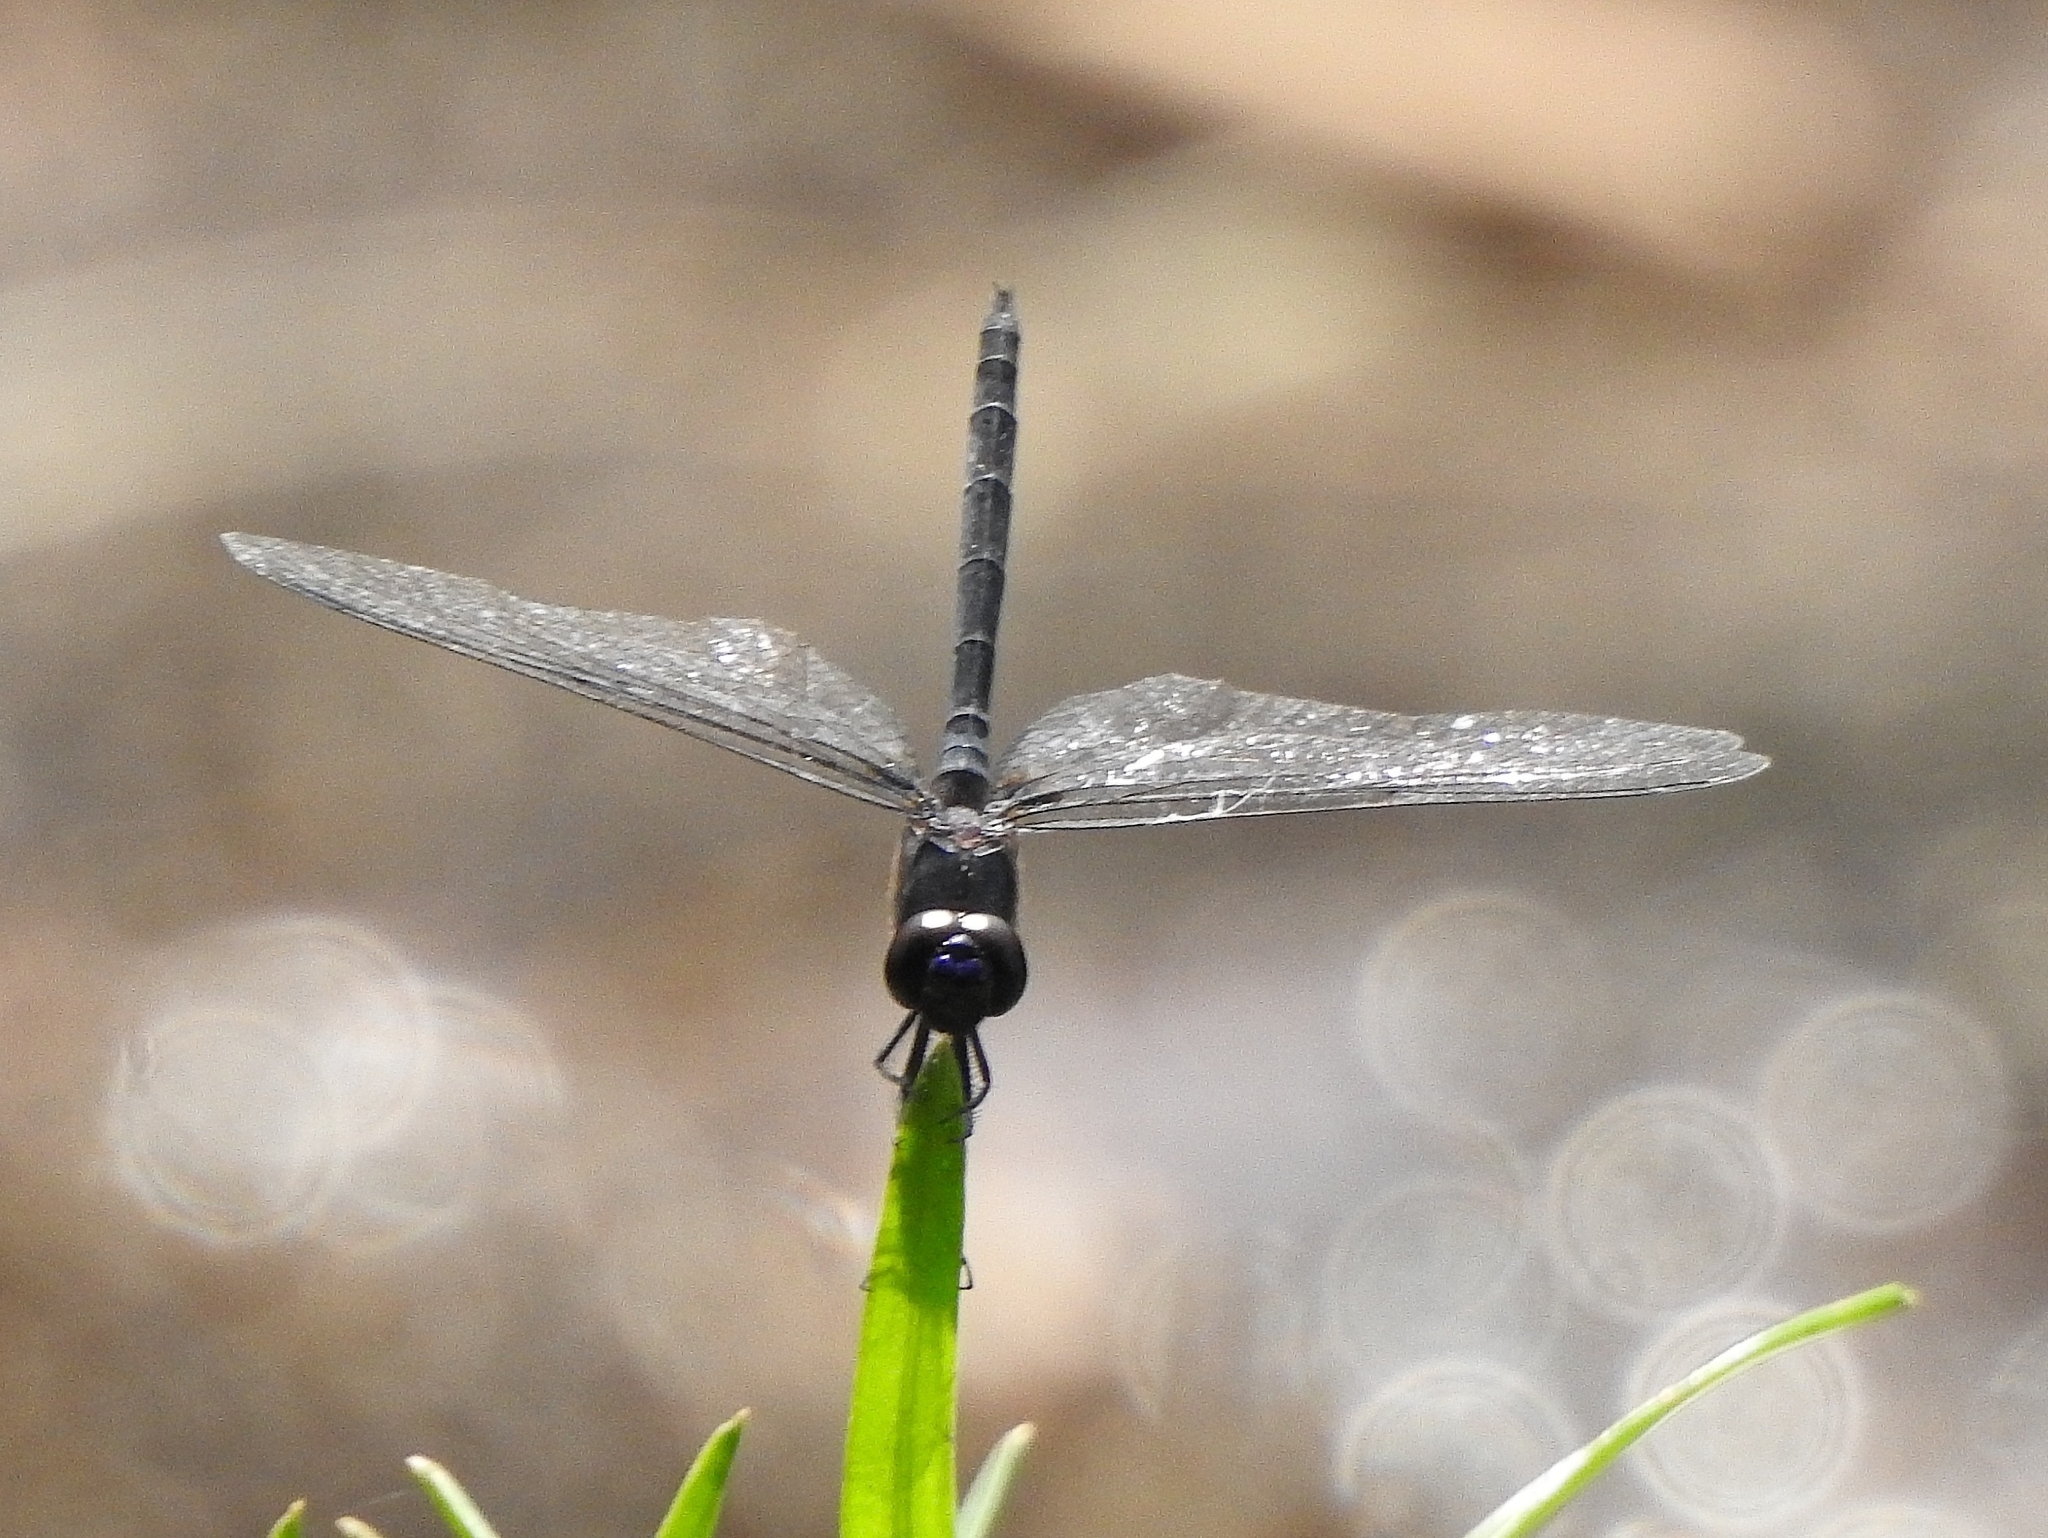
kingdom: Animalia
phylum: Arthropoda
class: Insecta
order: Odonata
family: Libellulidae
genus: Trithemis
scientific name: Trithemis festiva
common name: Indigo dropwing
